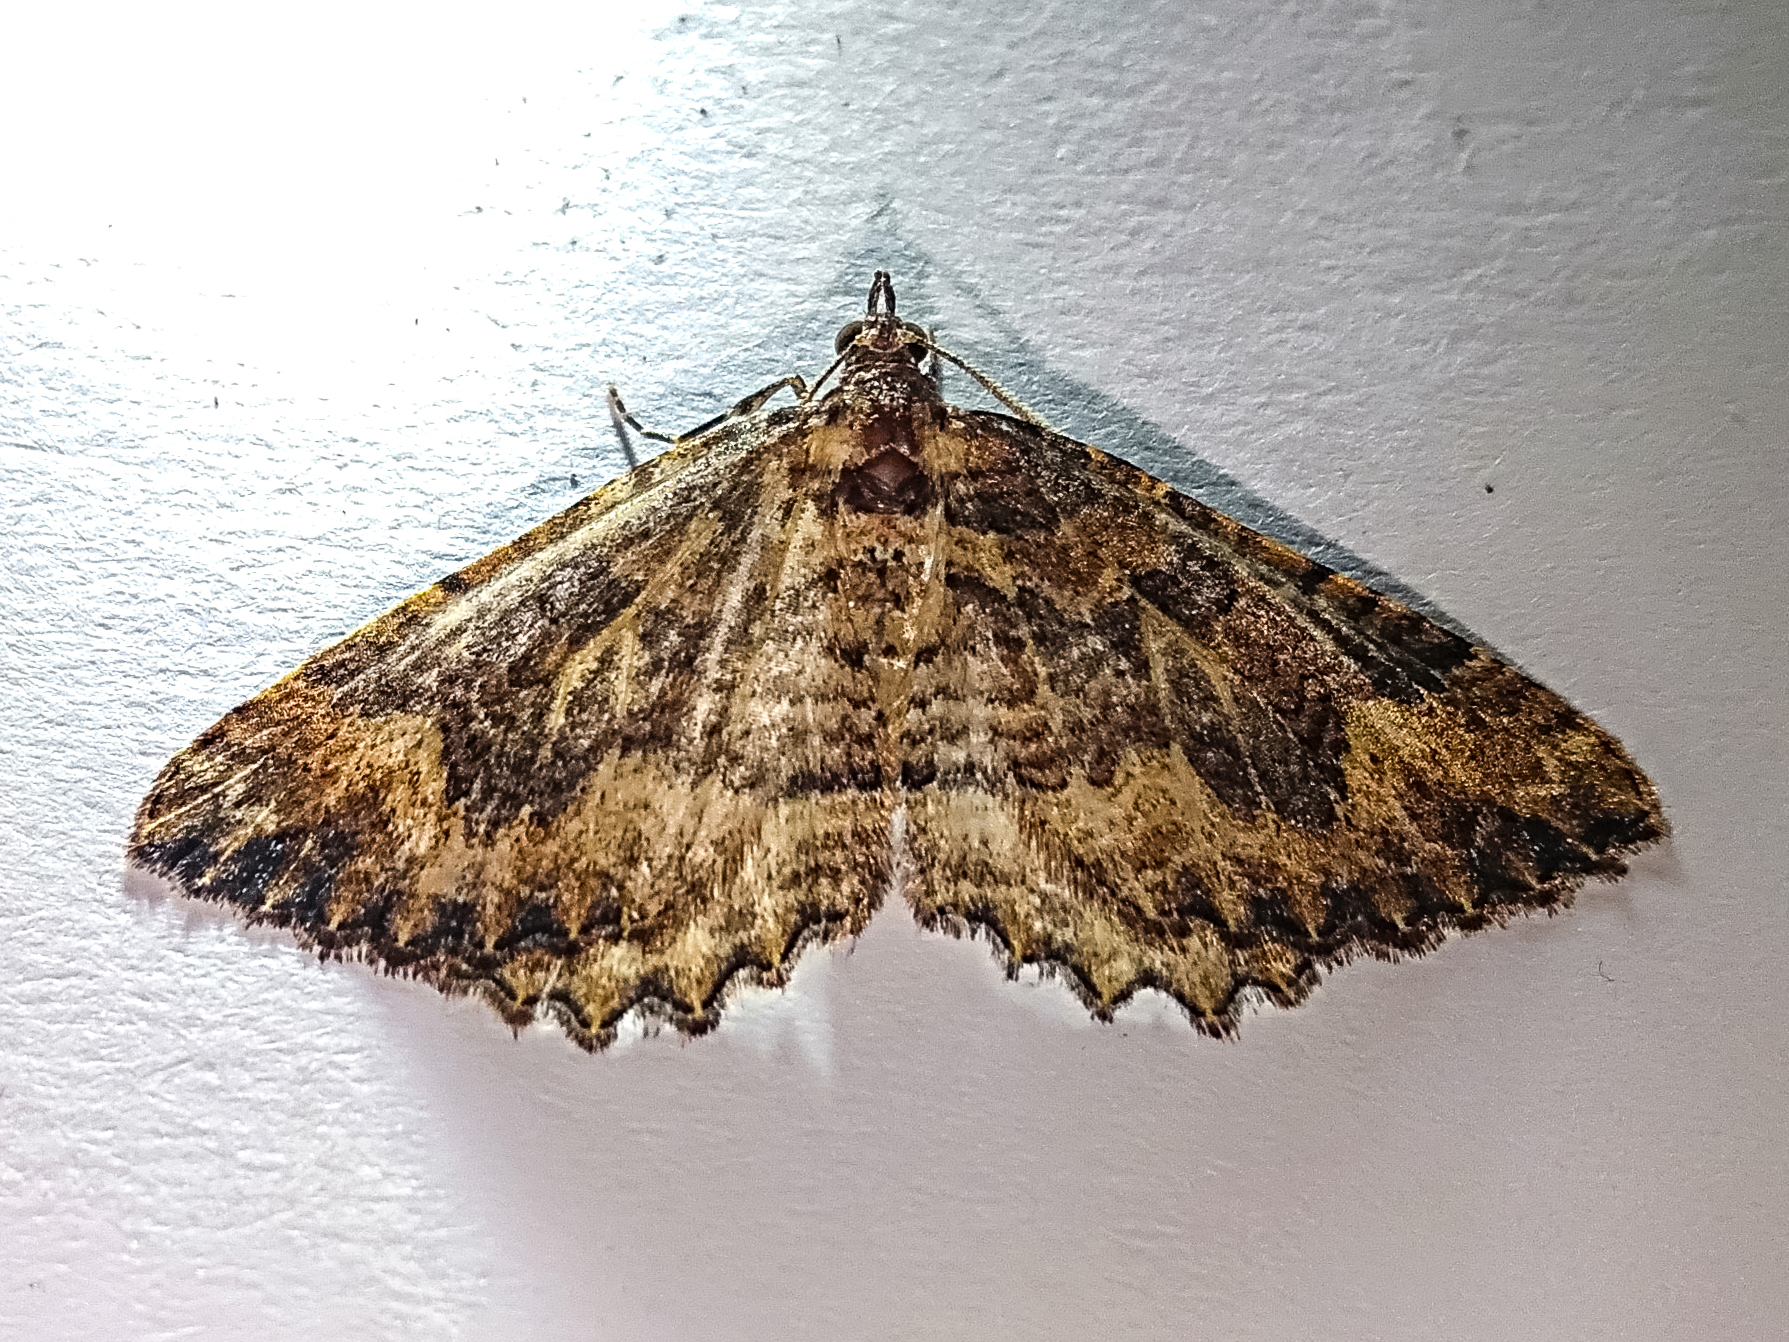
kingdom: Animalia
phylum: Arthropoda
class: Insecta
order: Lepidoptera
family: Geometridae
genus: Austrocidaria
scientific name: Austrocidaria cedrinodes
